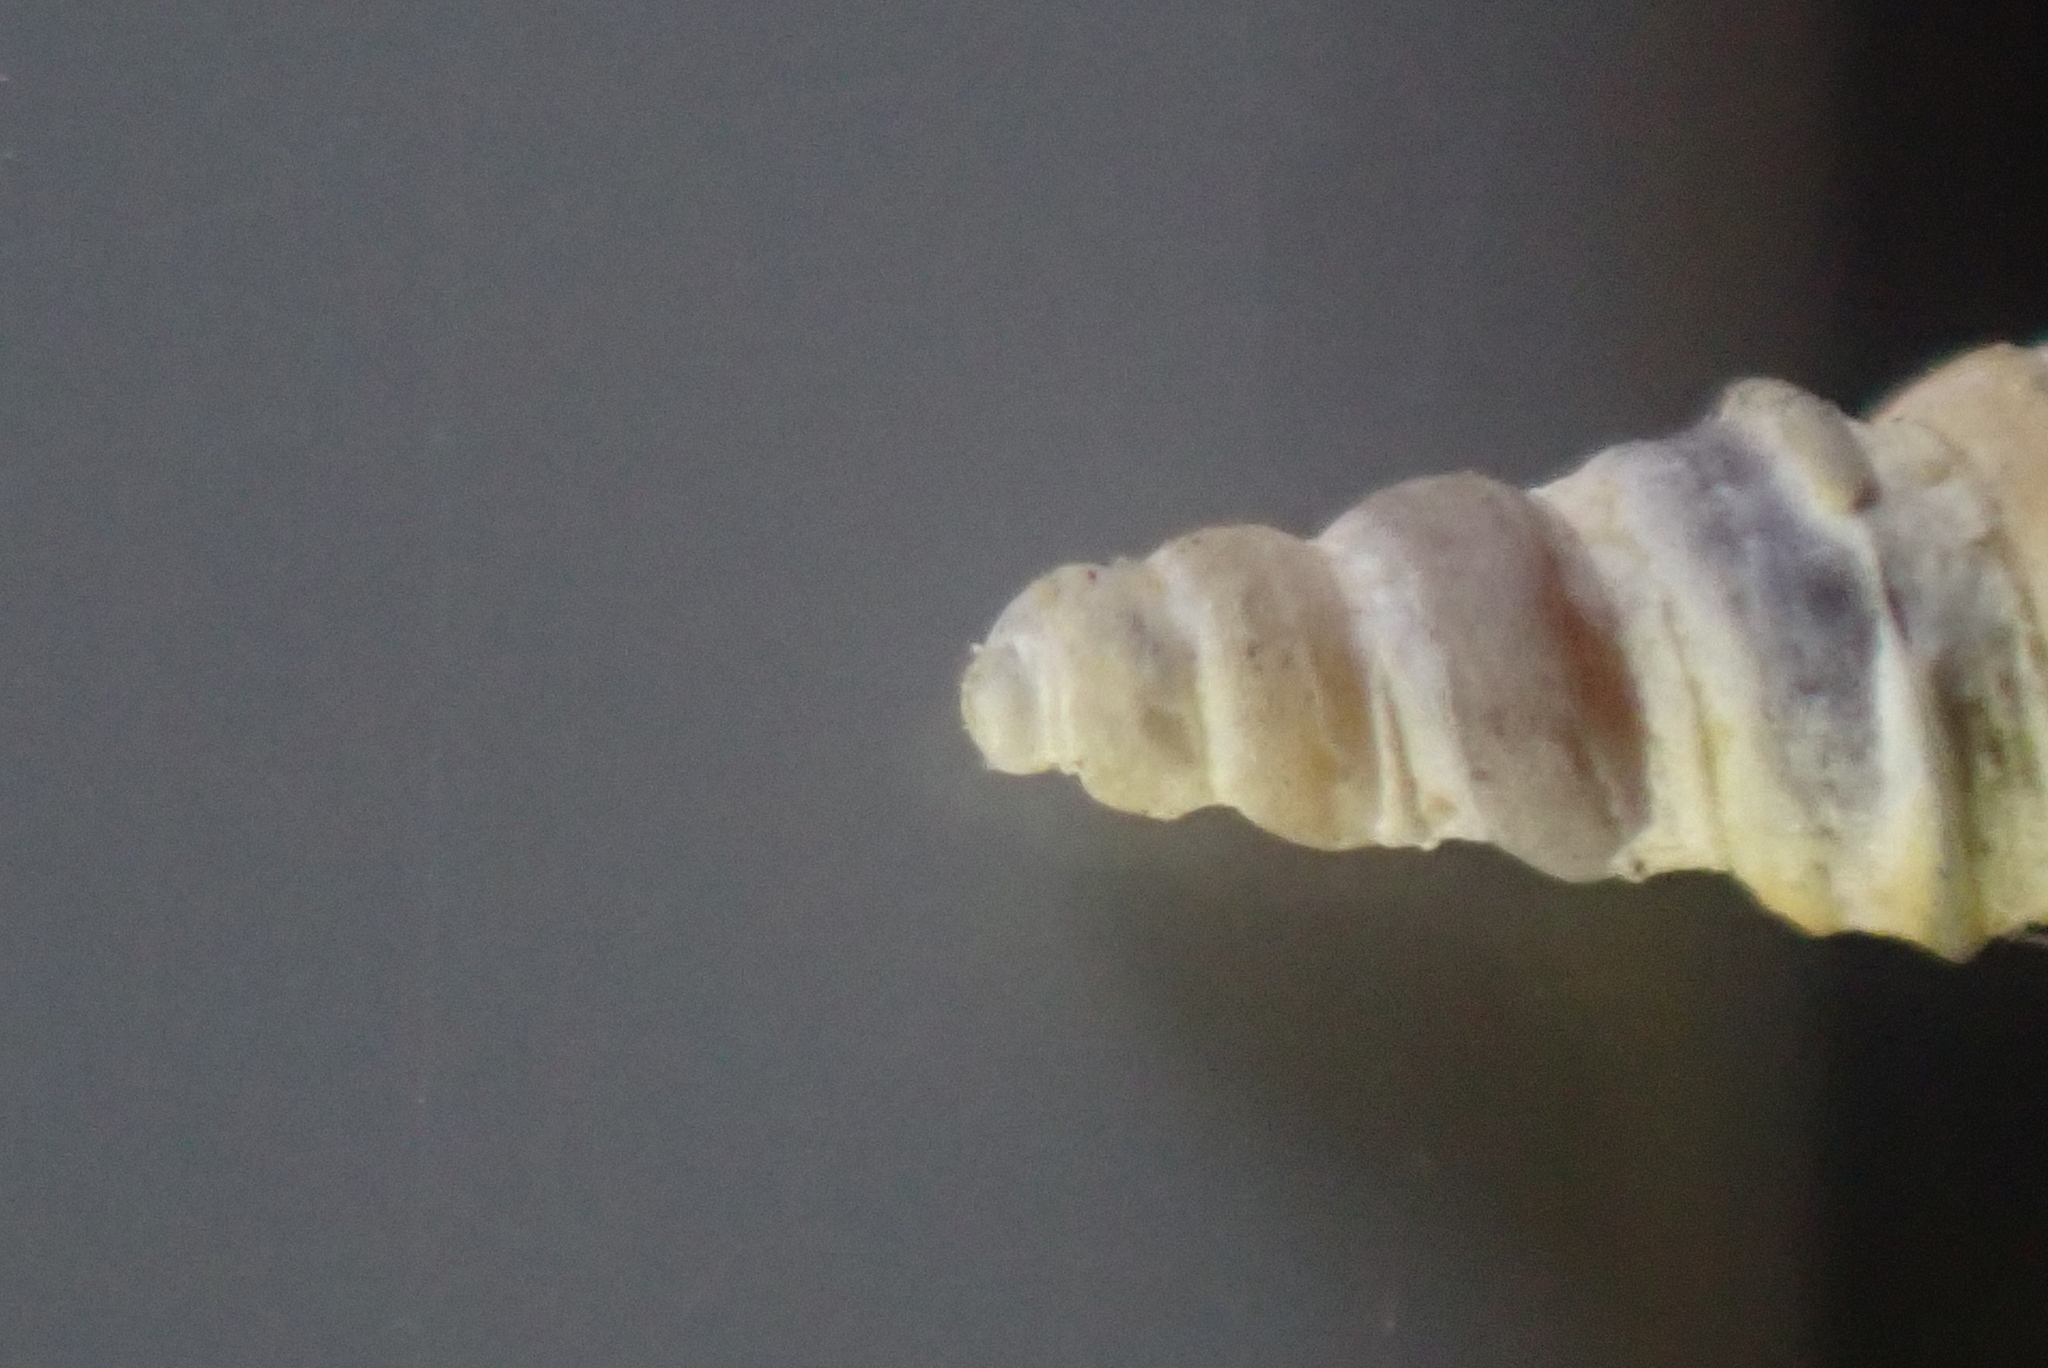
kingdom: Animalia
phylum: Mollusca
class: Gastropoda
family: Turritellidae
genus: Stiracolpus
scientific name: Stiracolpus pagoda
